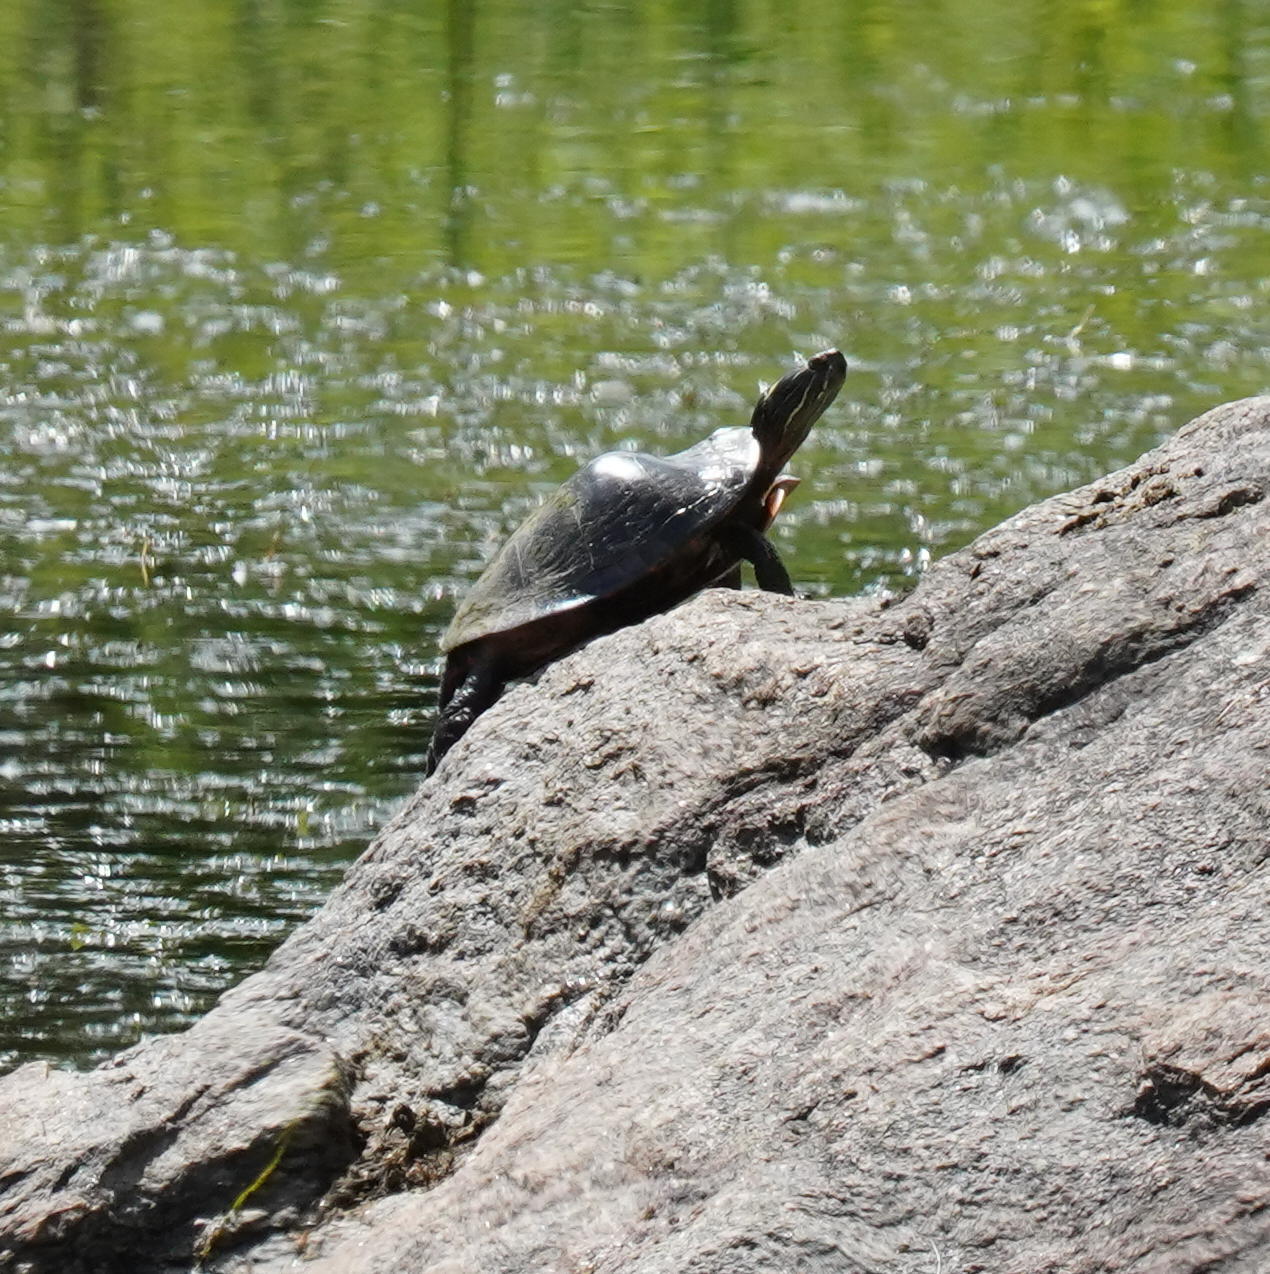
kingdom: Animalia
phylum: Chordata
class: Testudines
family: Emydidae
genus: Chrysemys
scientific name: Chrysemys picta
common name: Painted turtle
